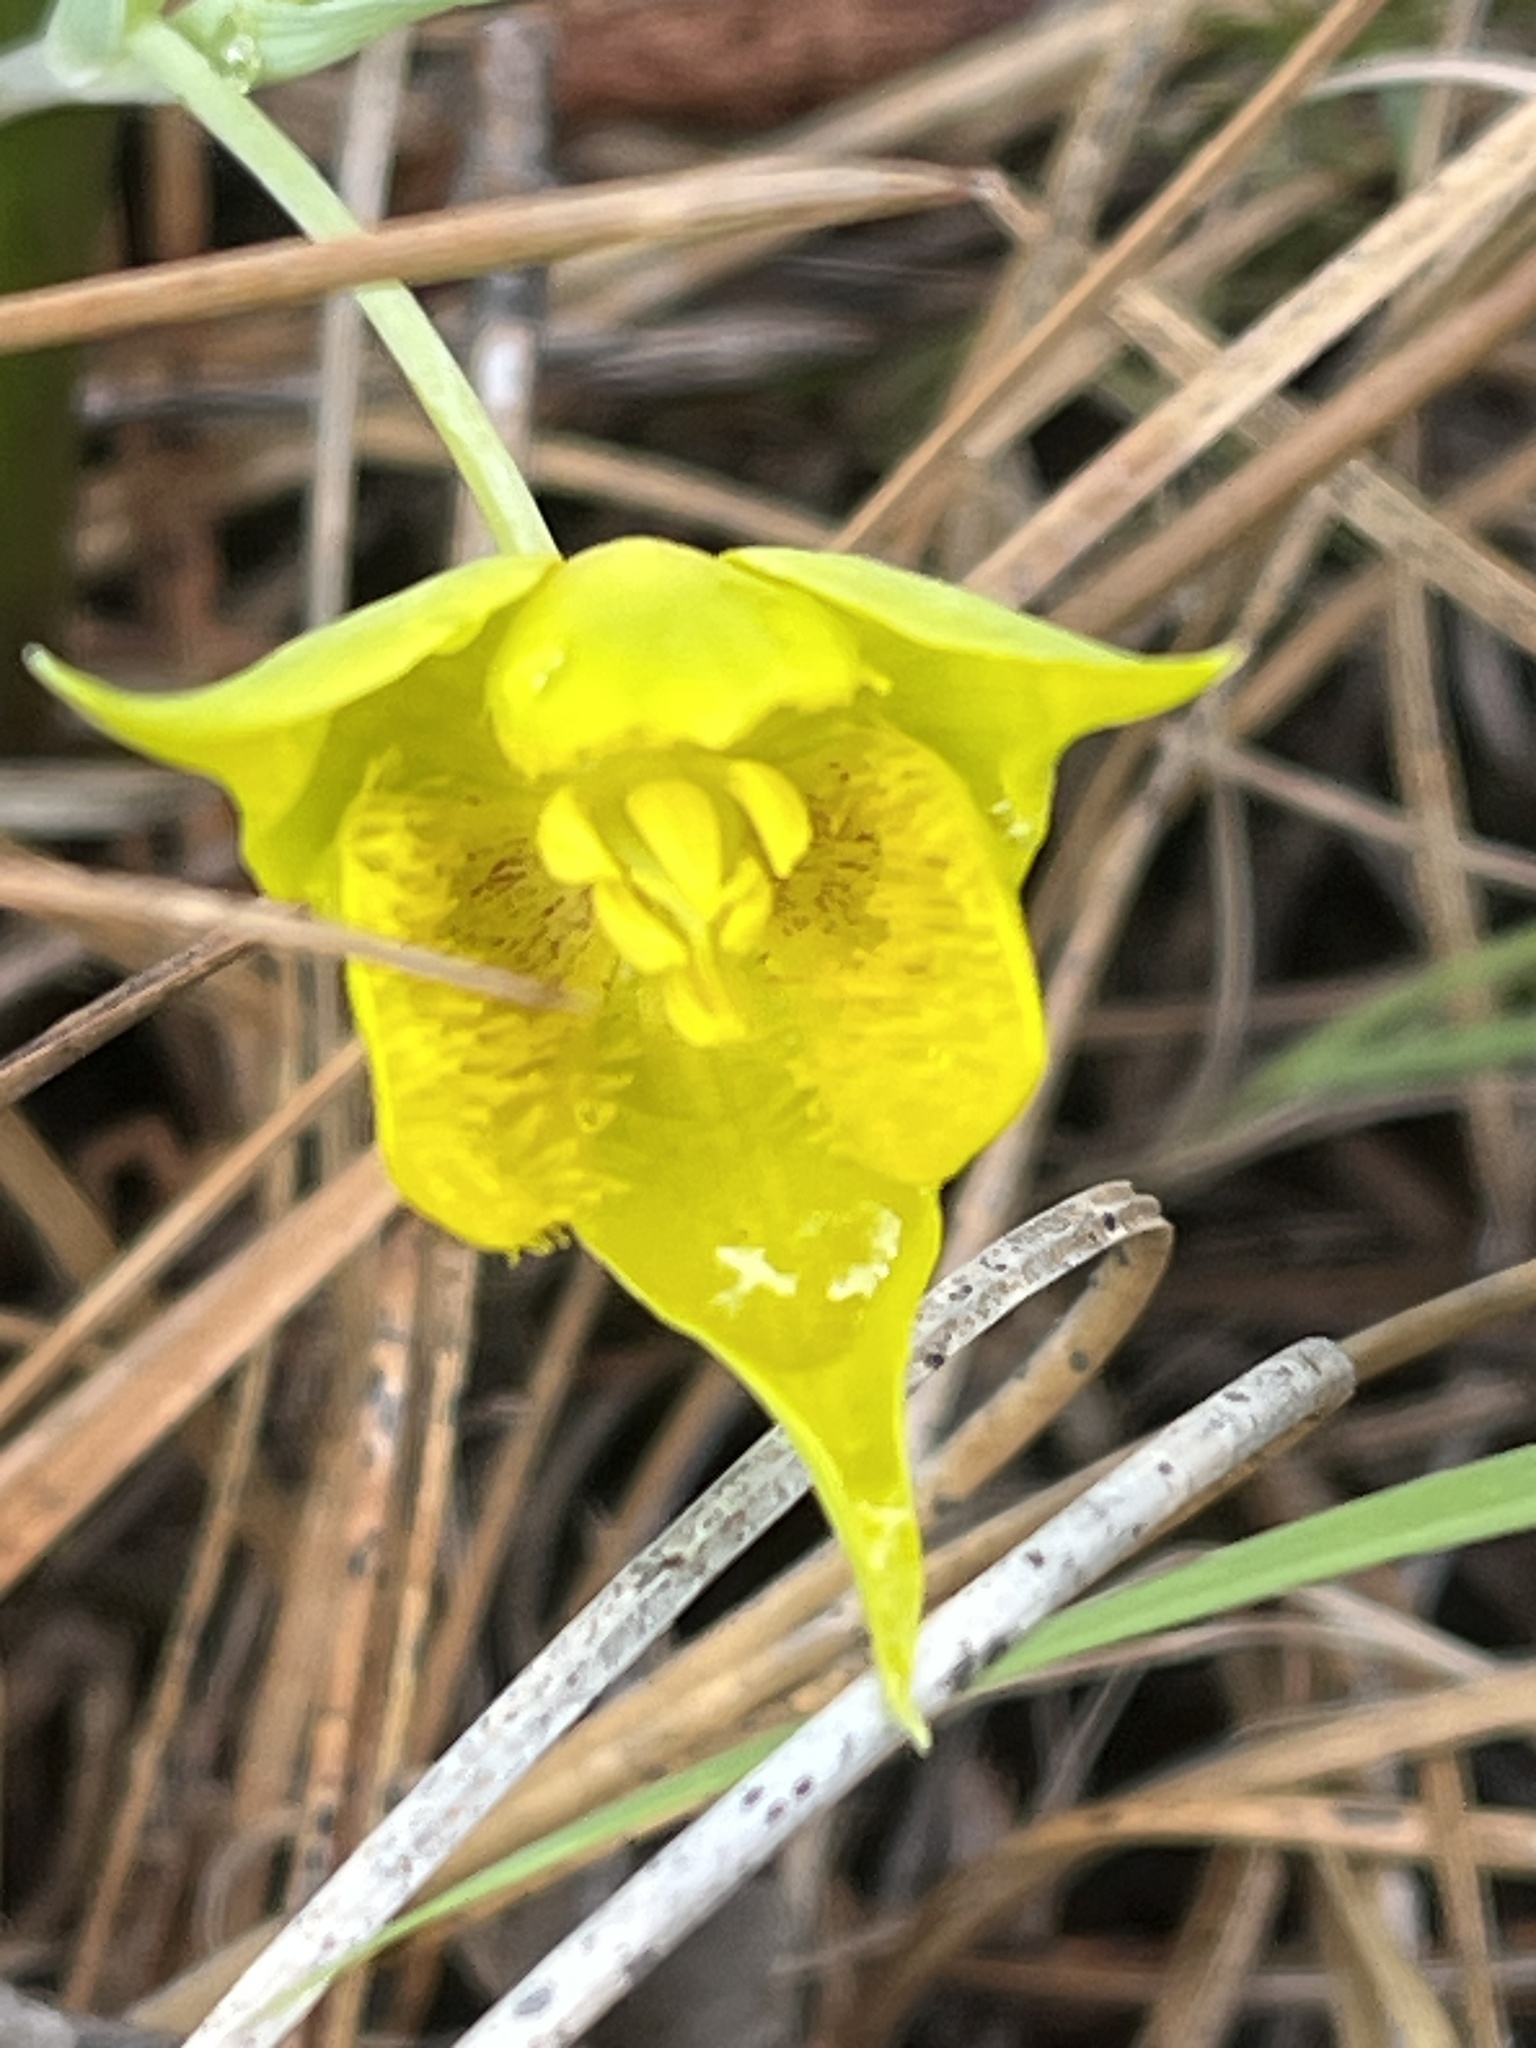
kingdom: Plantae
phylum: Tracheophyta
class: Liliopsida
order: Liliales
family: Liliaceae
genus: Calochortus
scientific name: Calochortus monophyllus
